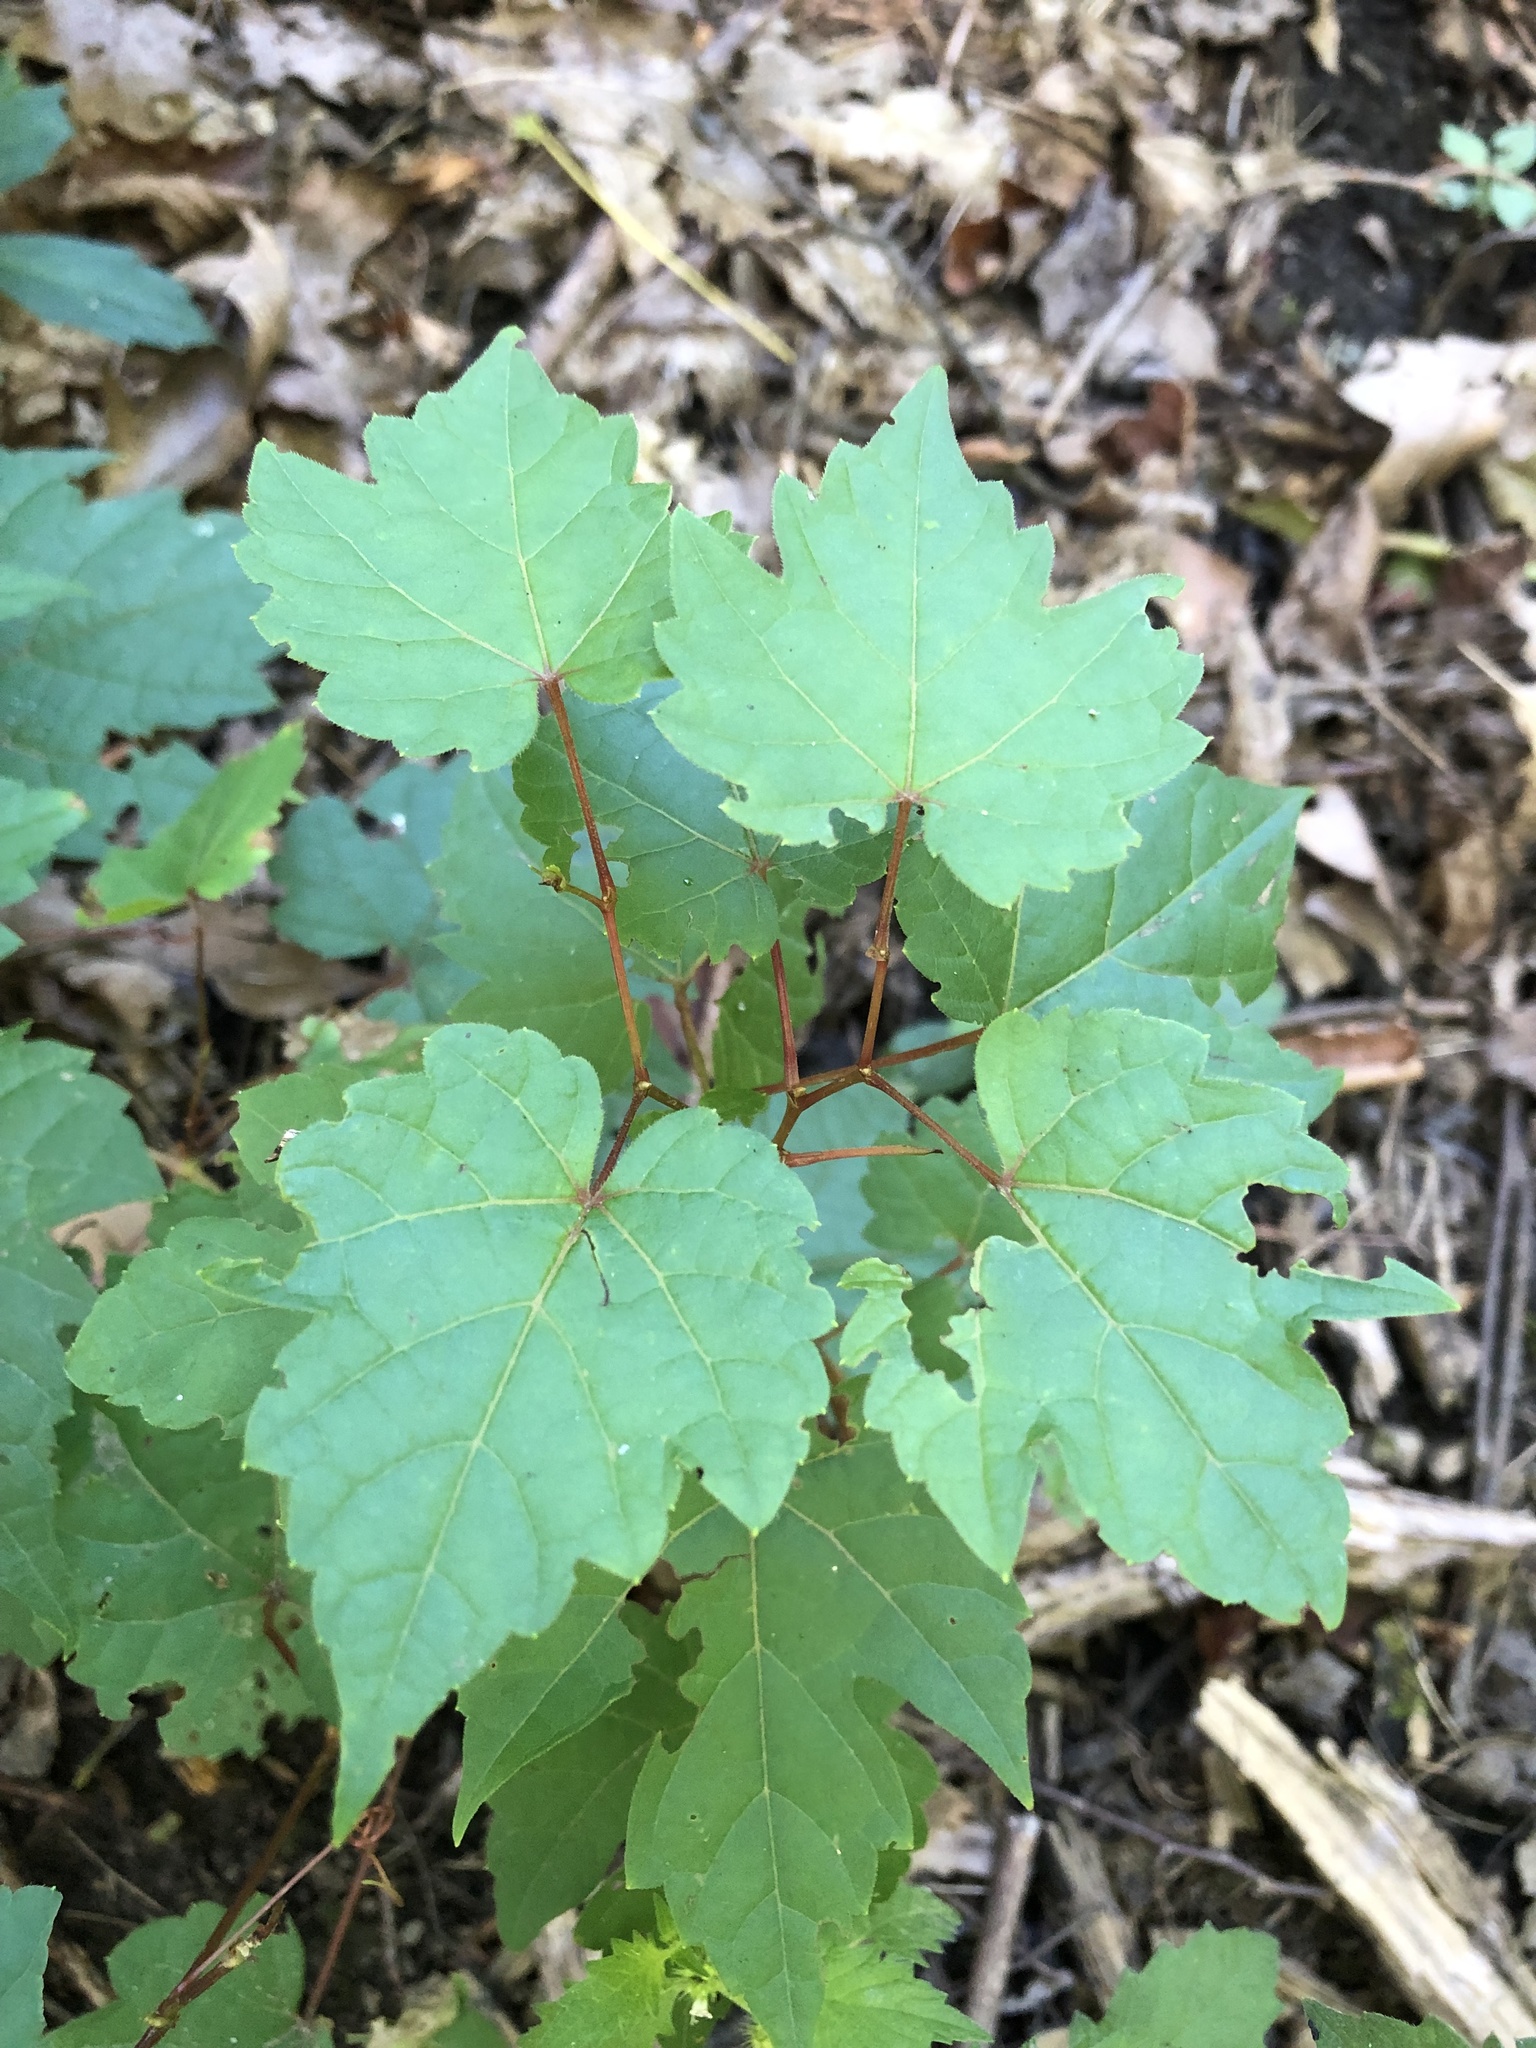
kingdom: Plantae
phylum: Tracheophyta
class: Magnoliopsida
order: Sapindales
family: Sapindaceae
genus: Acer
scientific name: Acer rubrum
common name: Red maple
